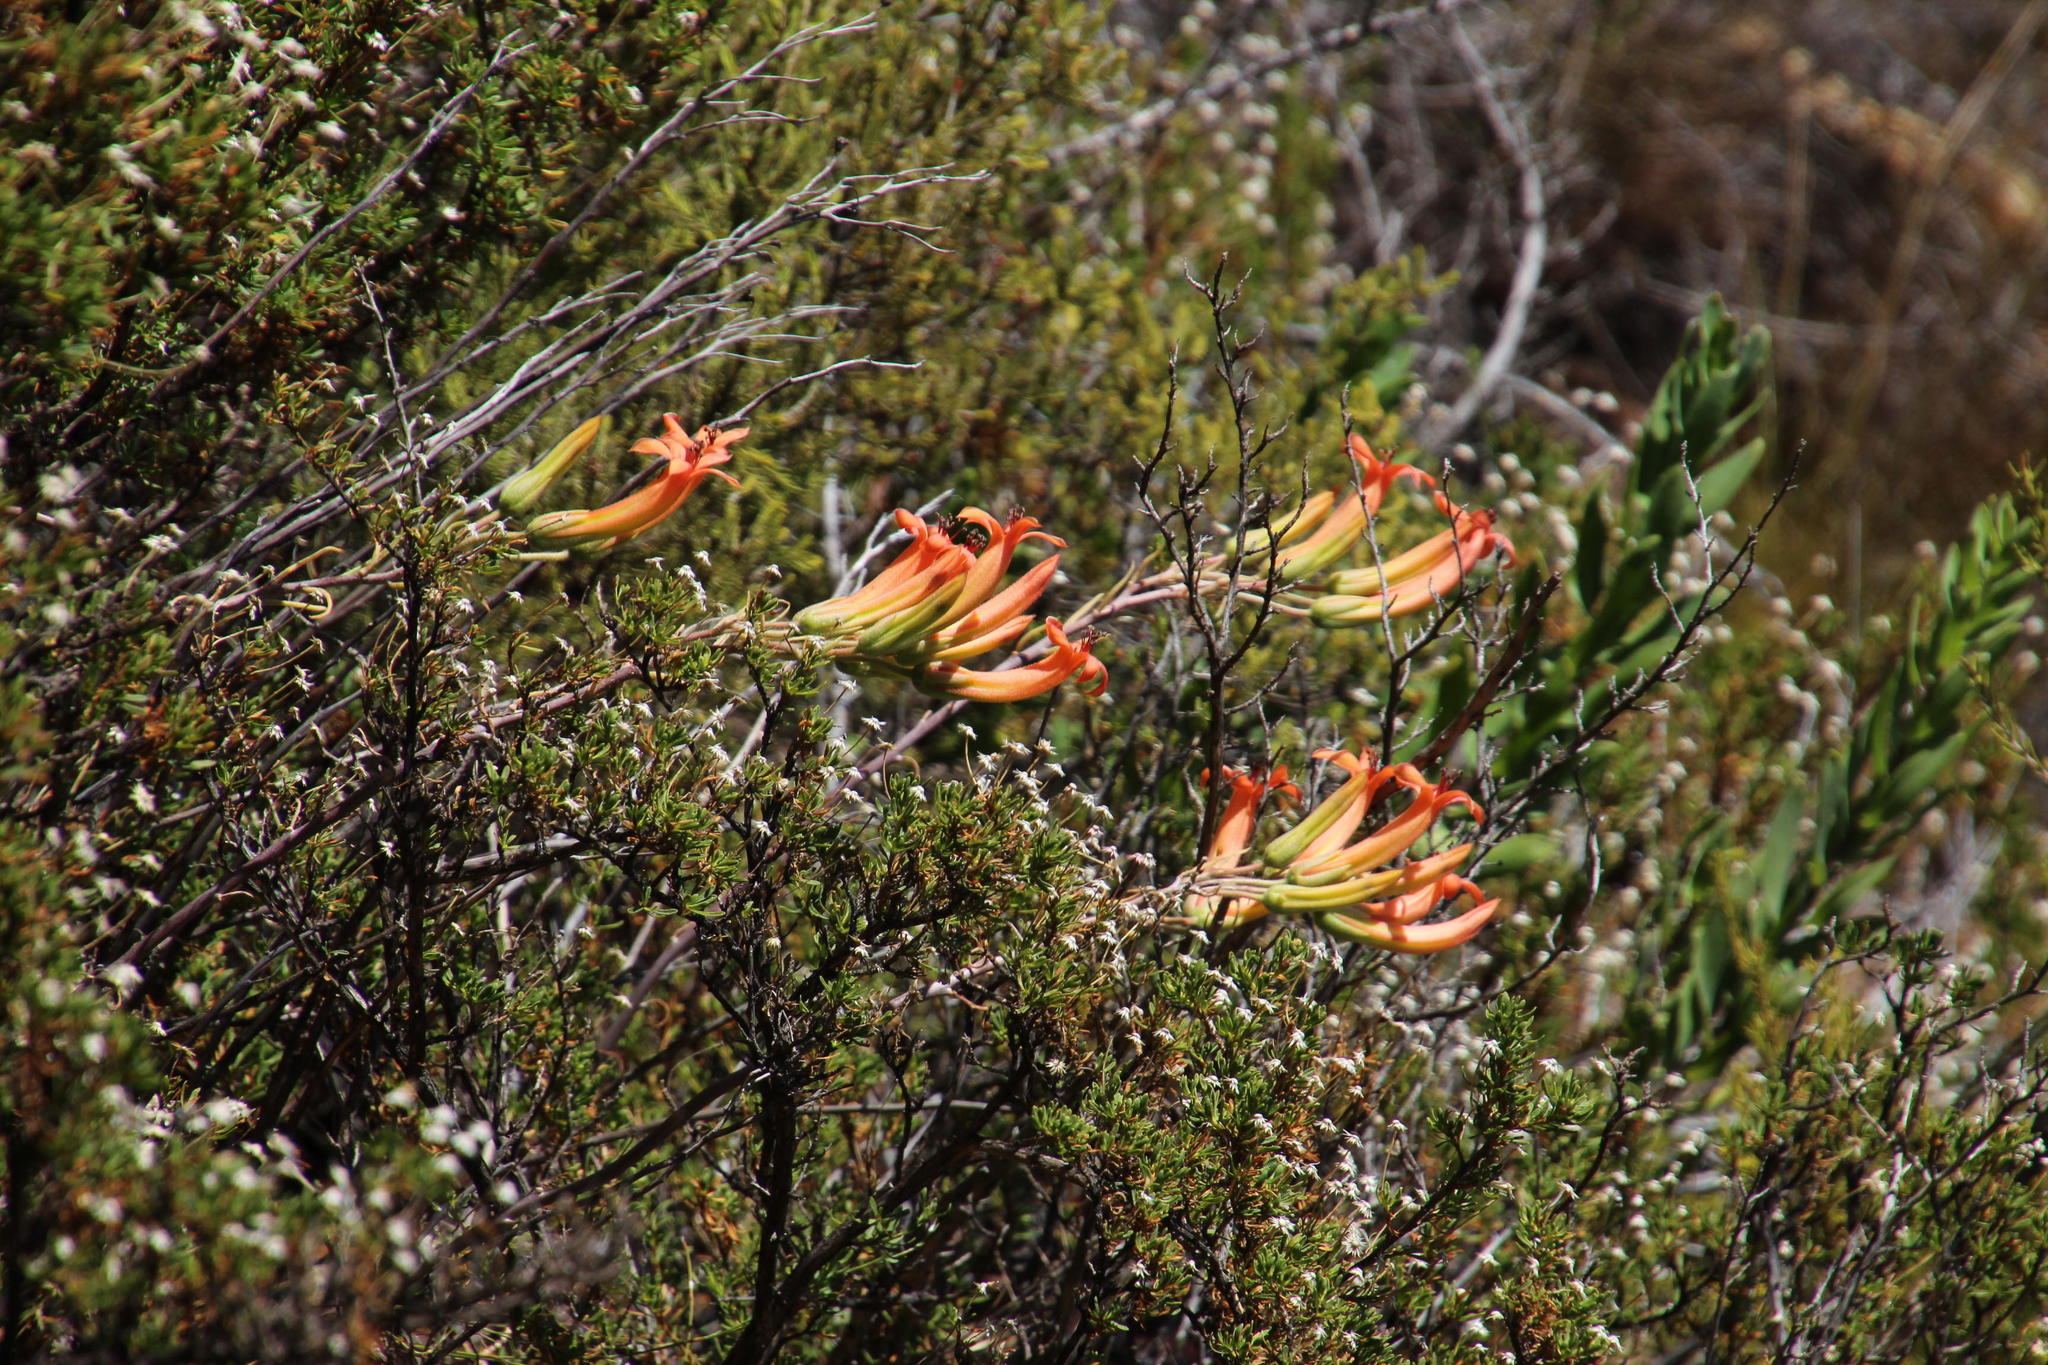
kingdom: Plantae
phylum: Tracheophyta
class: Magnoliopsida
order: Saxifragales
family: Crassulaceae
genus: Tylecodon
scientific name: Tylecodon grandiflorus
